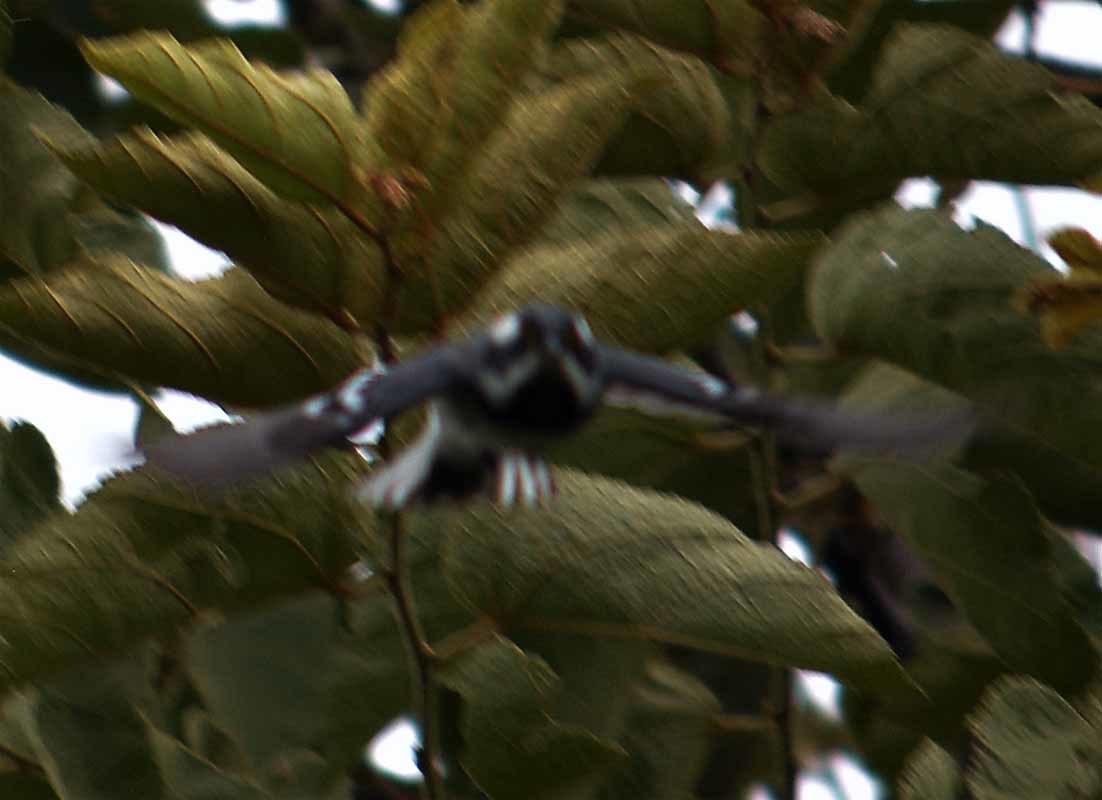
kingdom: Animalia
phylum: Chordata
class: Aves
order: Passeriformes
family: Parulidae
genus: Setophaga
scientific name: Setophaga nigrescens
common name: Black-throated gray warbler
